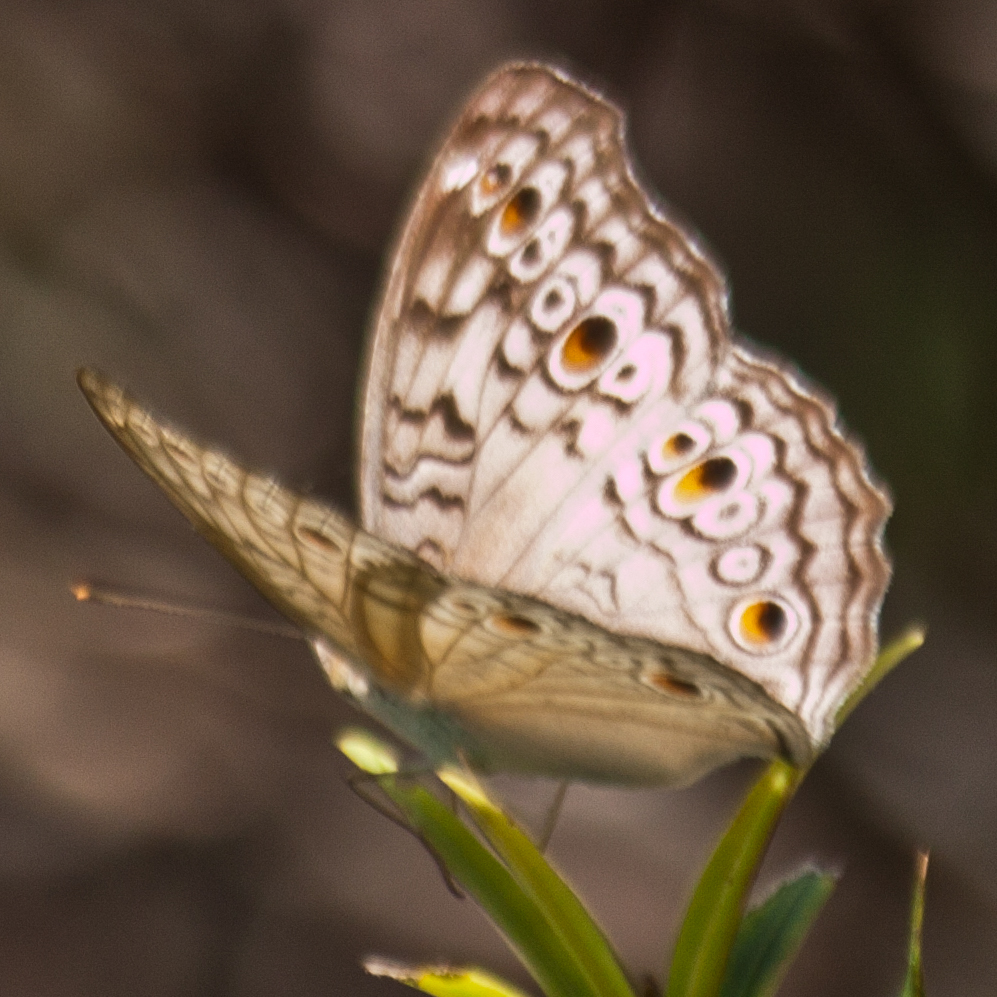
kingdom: Animalia
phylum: Arthropoda
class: Insecta
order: Lepidoptera
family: Nymphalidae
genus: Junonia
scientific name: Junonia atlites
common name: Grey pansy
